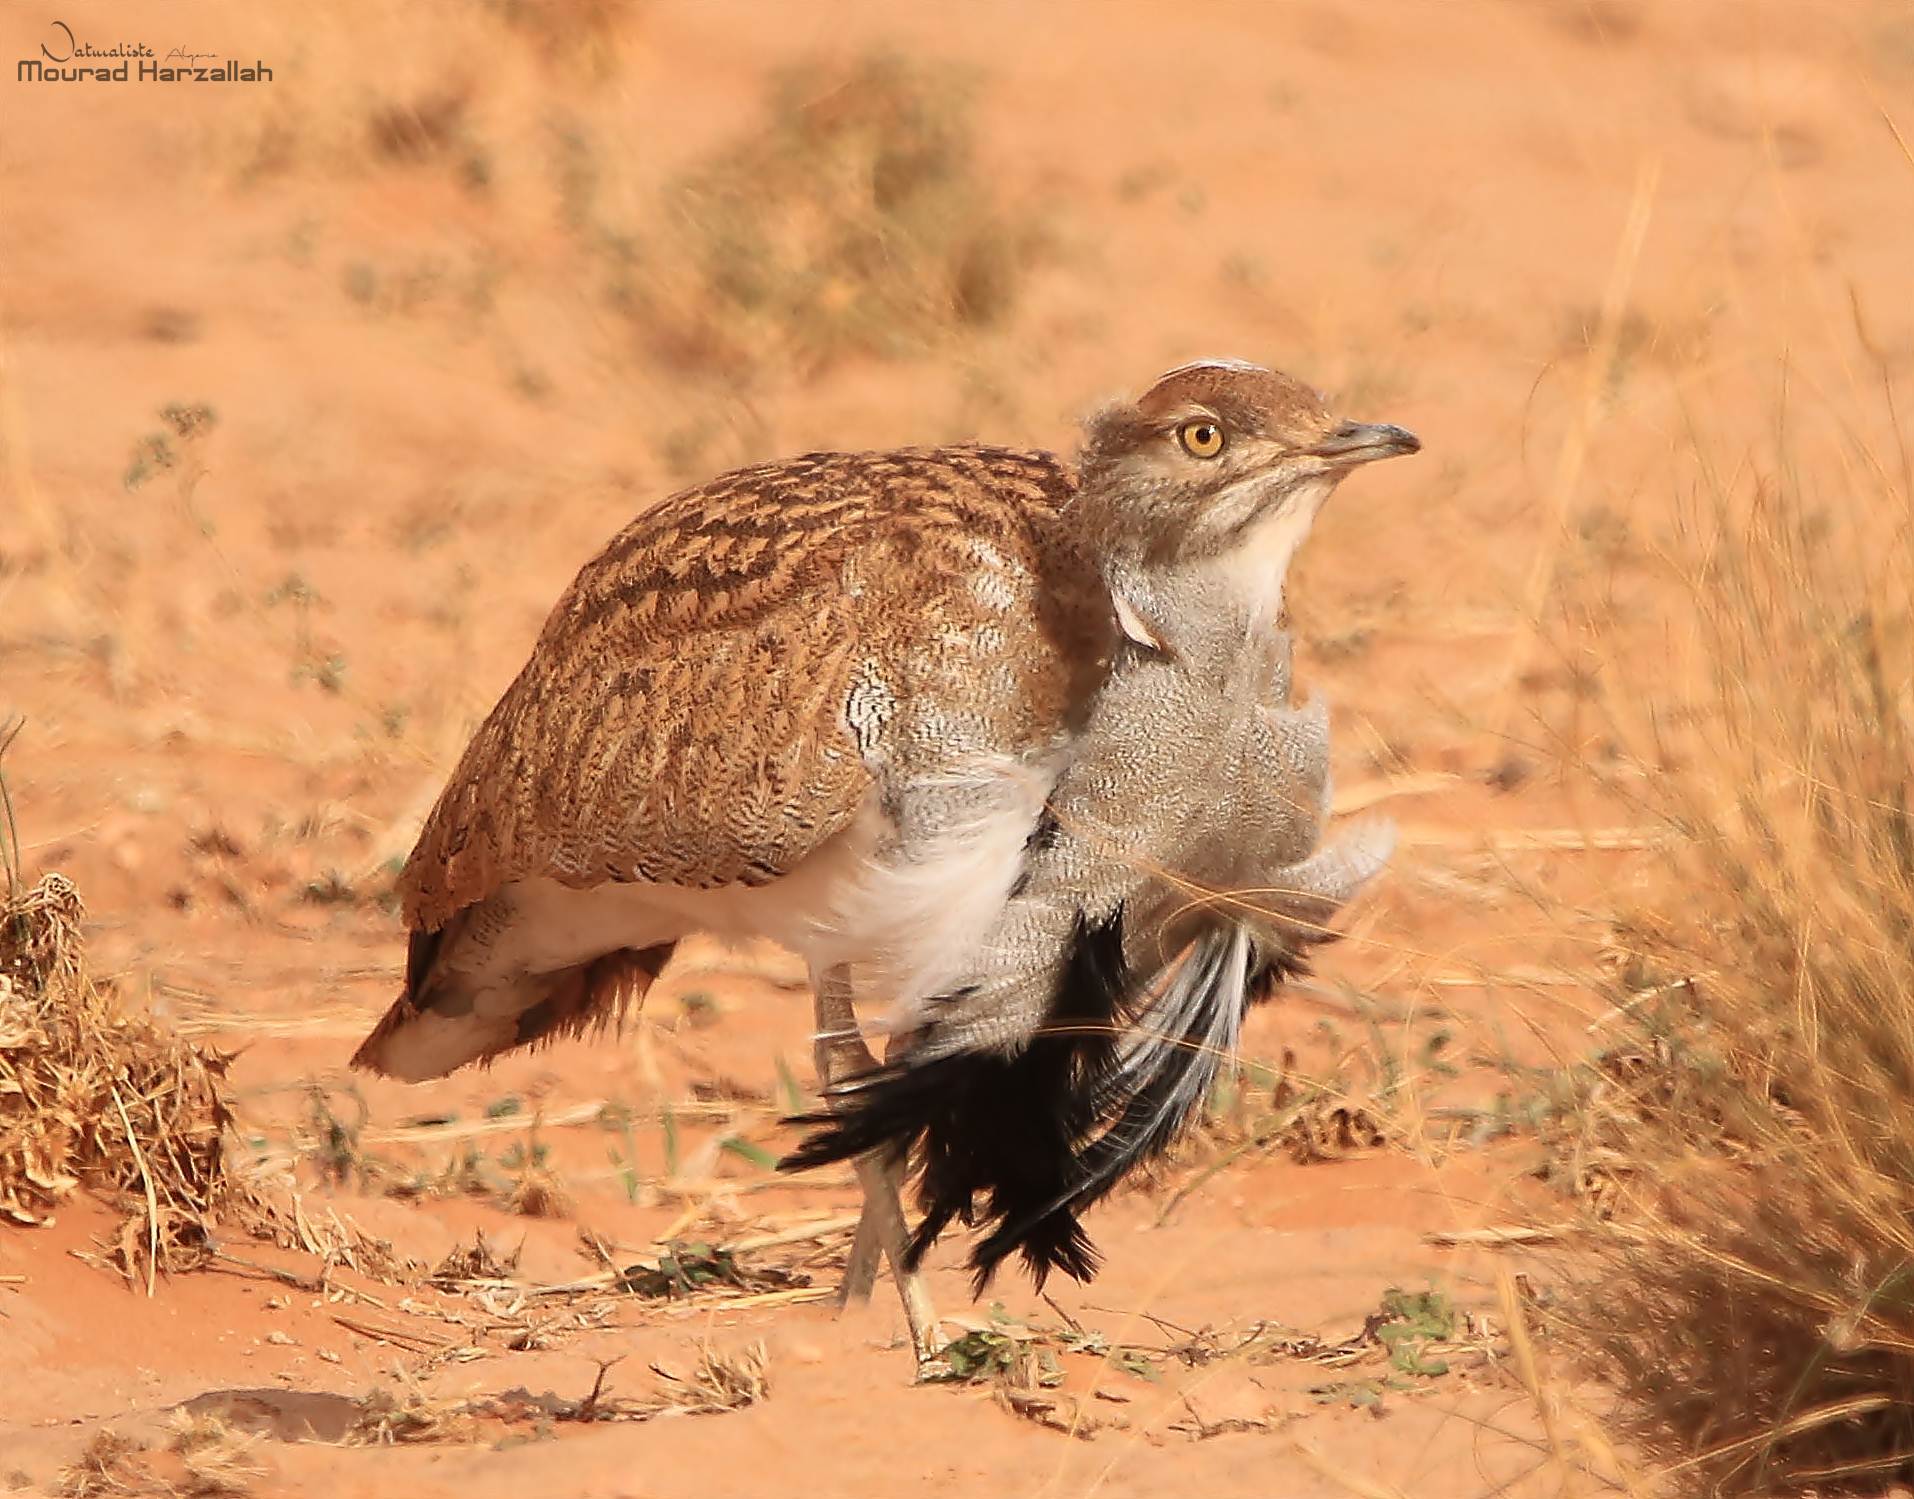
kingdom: Animalia
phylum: Chordata
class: Aves
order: Otidiformes
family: Otididae
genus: Chlamydotis
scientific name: Chlamydotis undulata
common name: Houbara bustard
